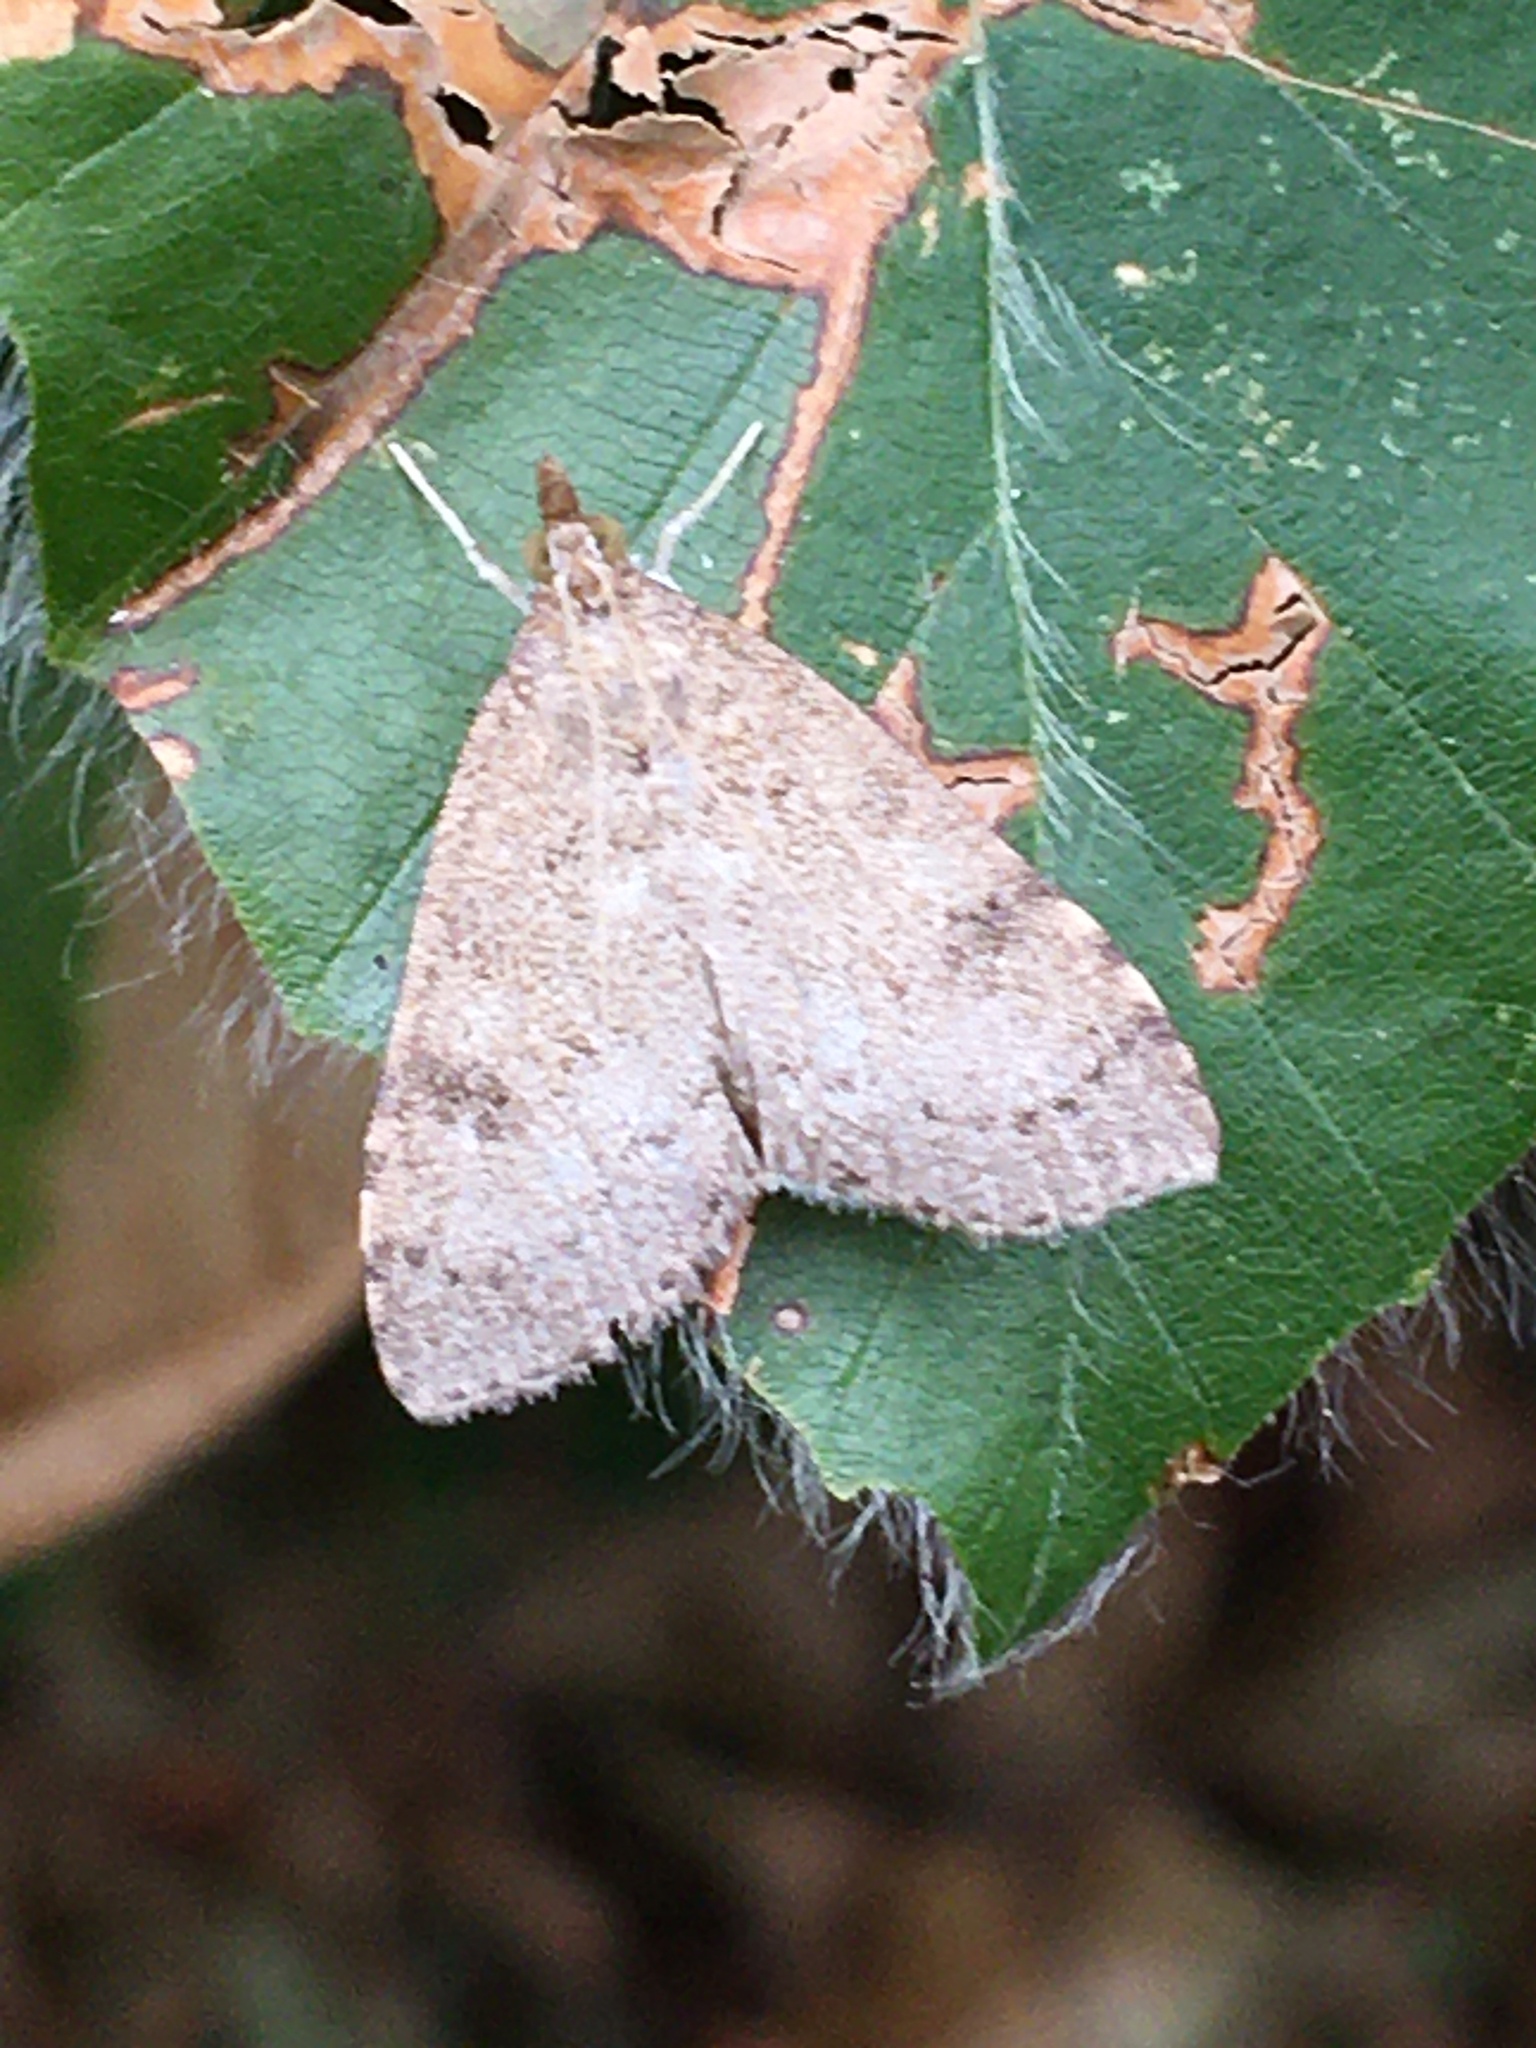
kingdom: Animalia
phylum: Arthropoda
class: Insecta
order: Lepidoptera
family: Crambidae
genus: Udea
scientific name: Udea prunalis
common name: Dusky pearl
